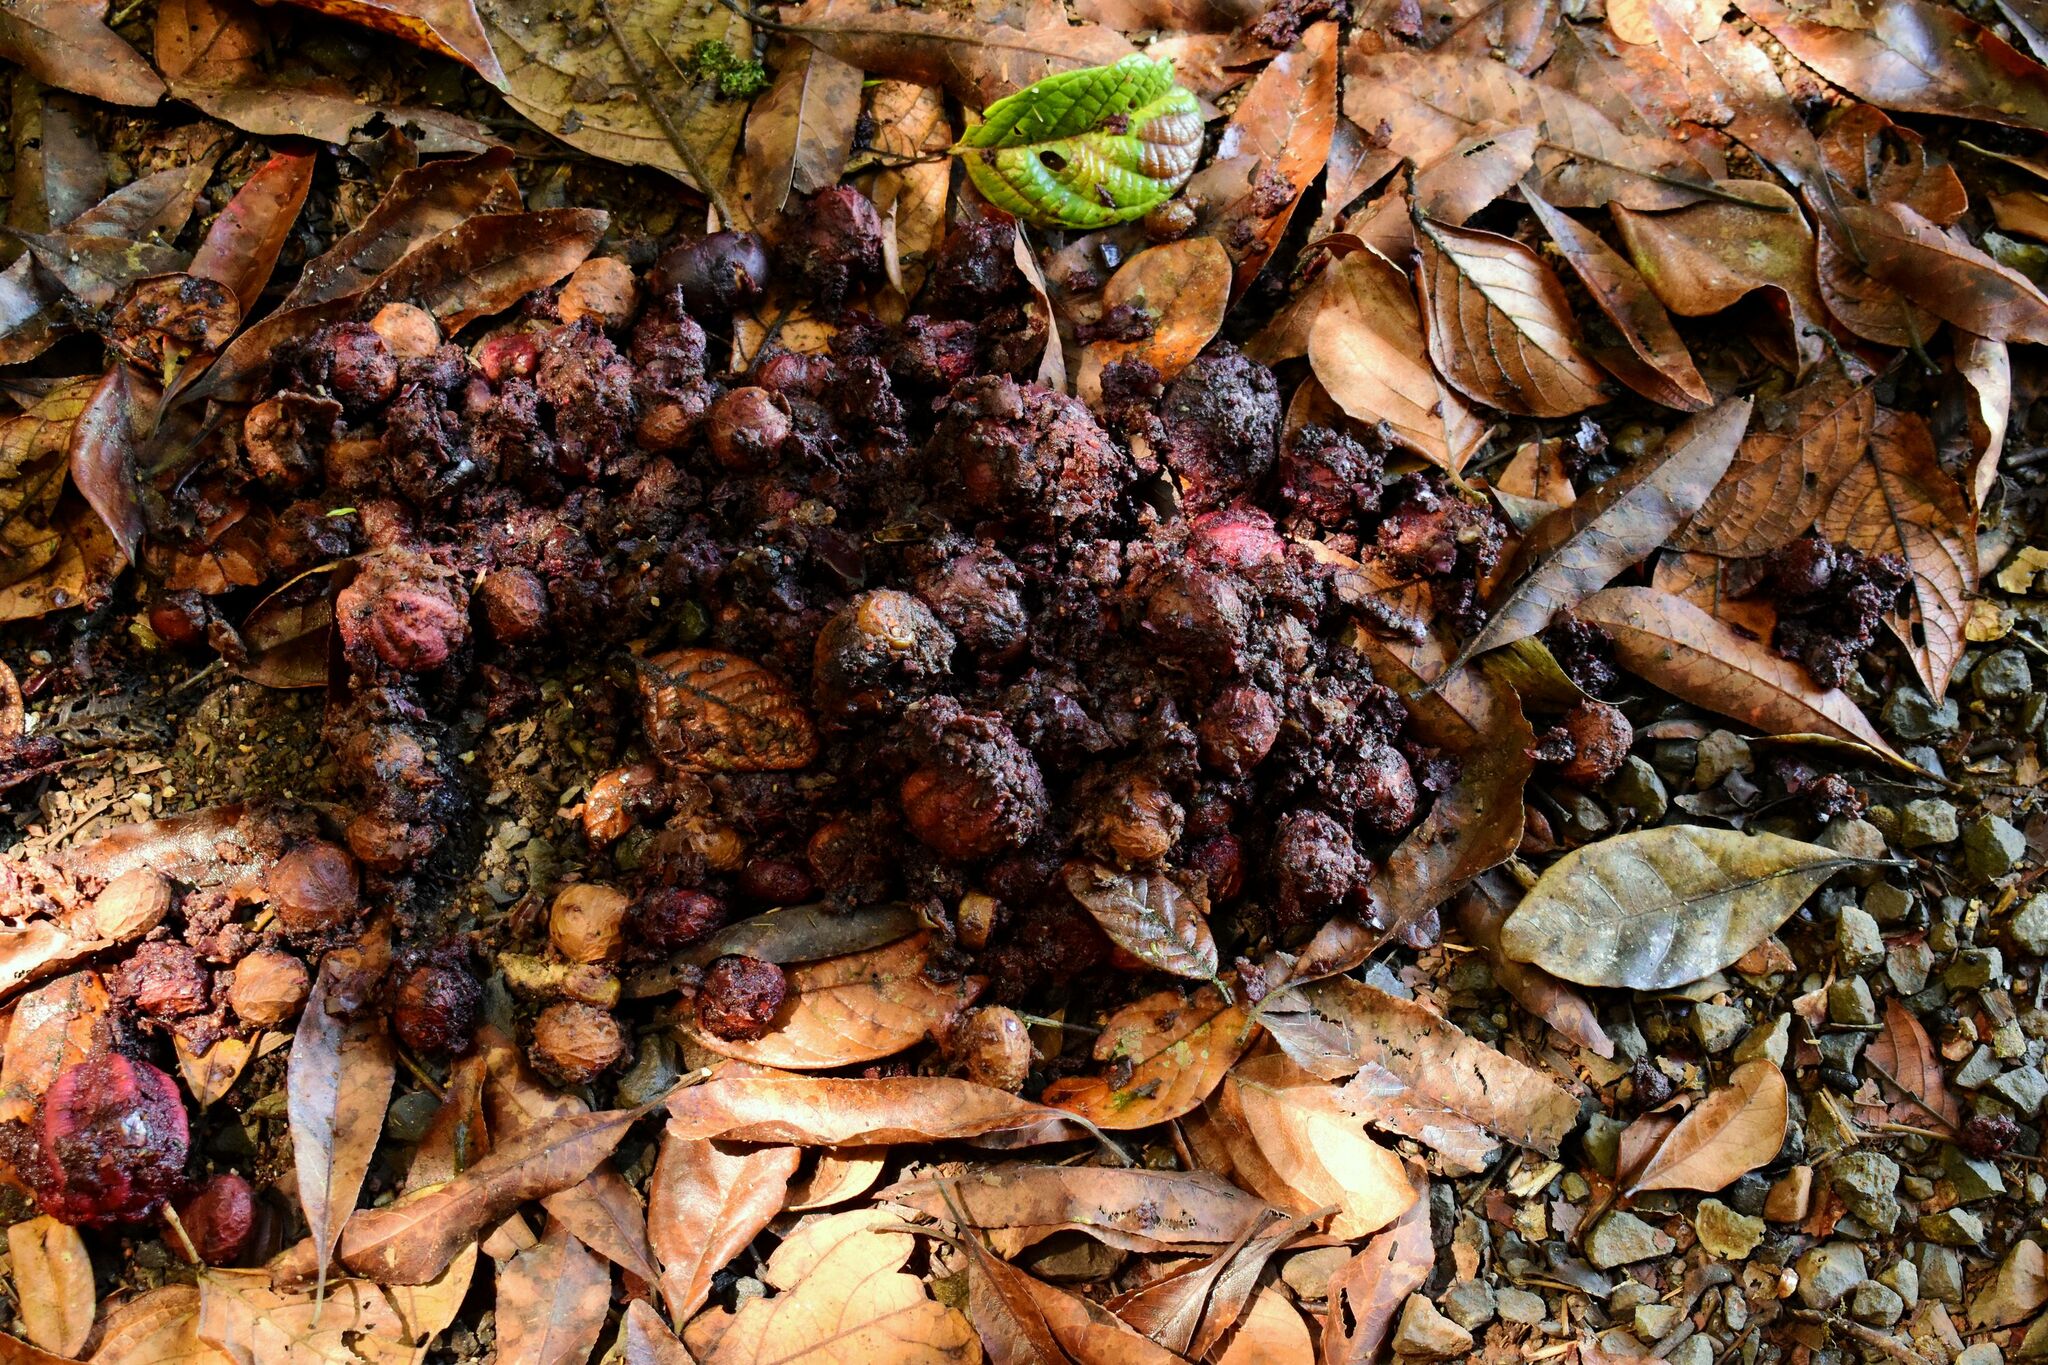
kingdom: Animalia
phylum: Chordata
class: Aves
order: Casuariiformes
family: Casuariidae
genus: Casuarius
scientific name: Casuarius casuarius
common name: Southern cassowary
